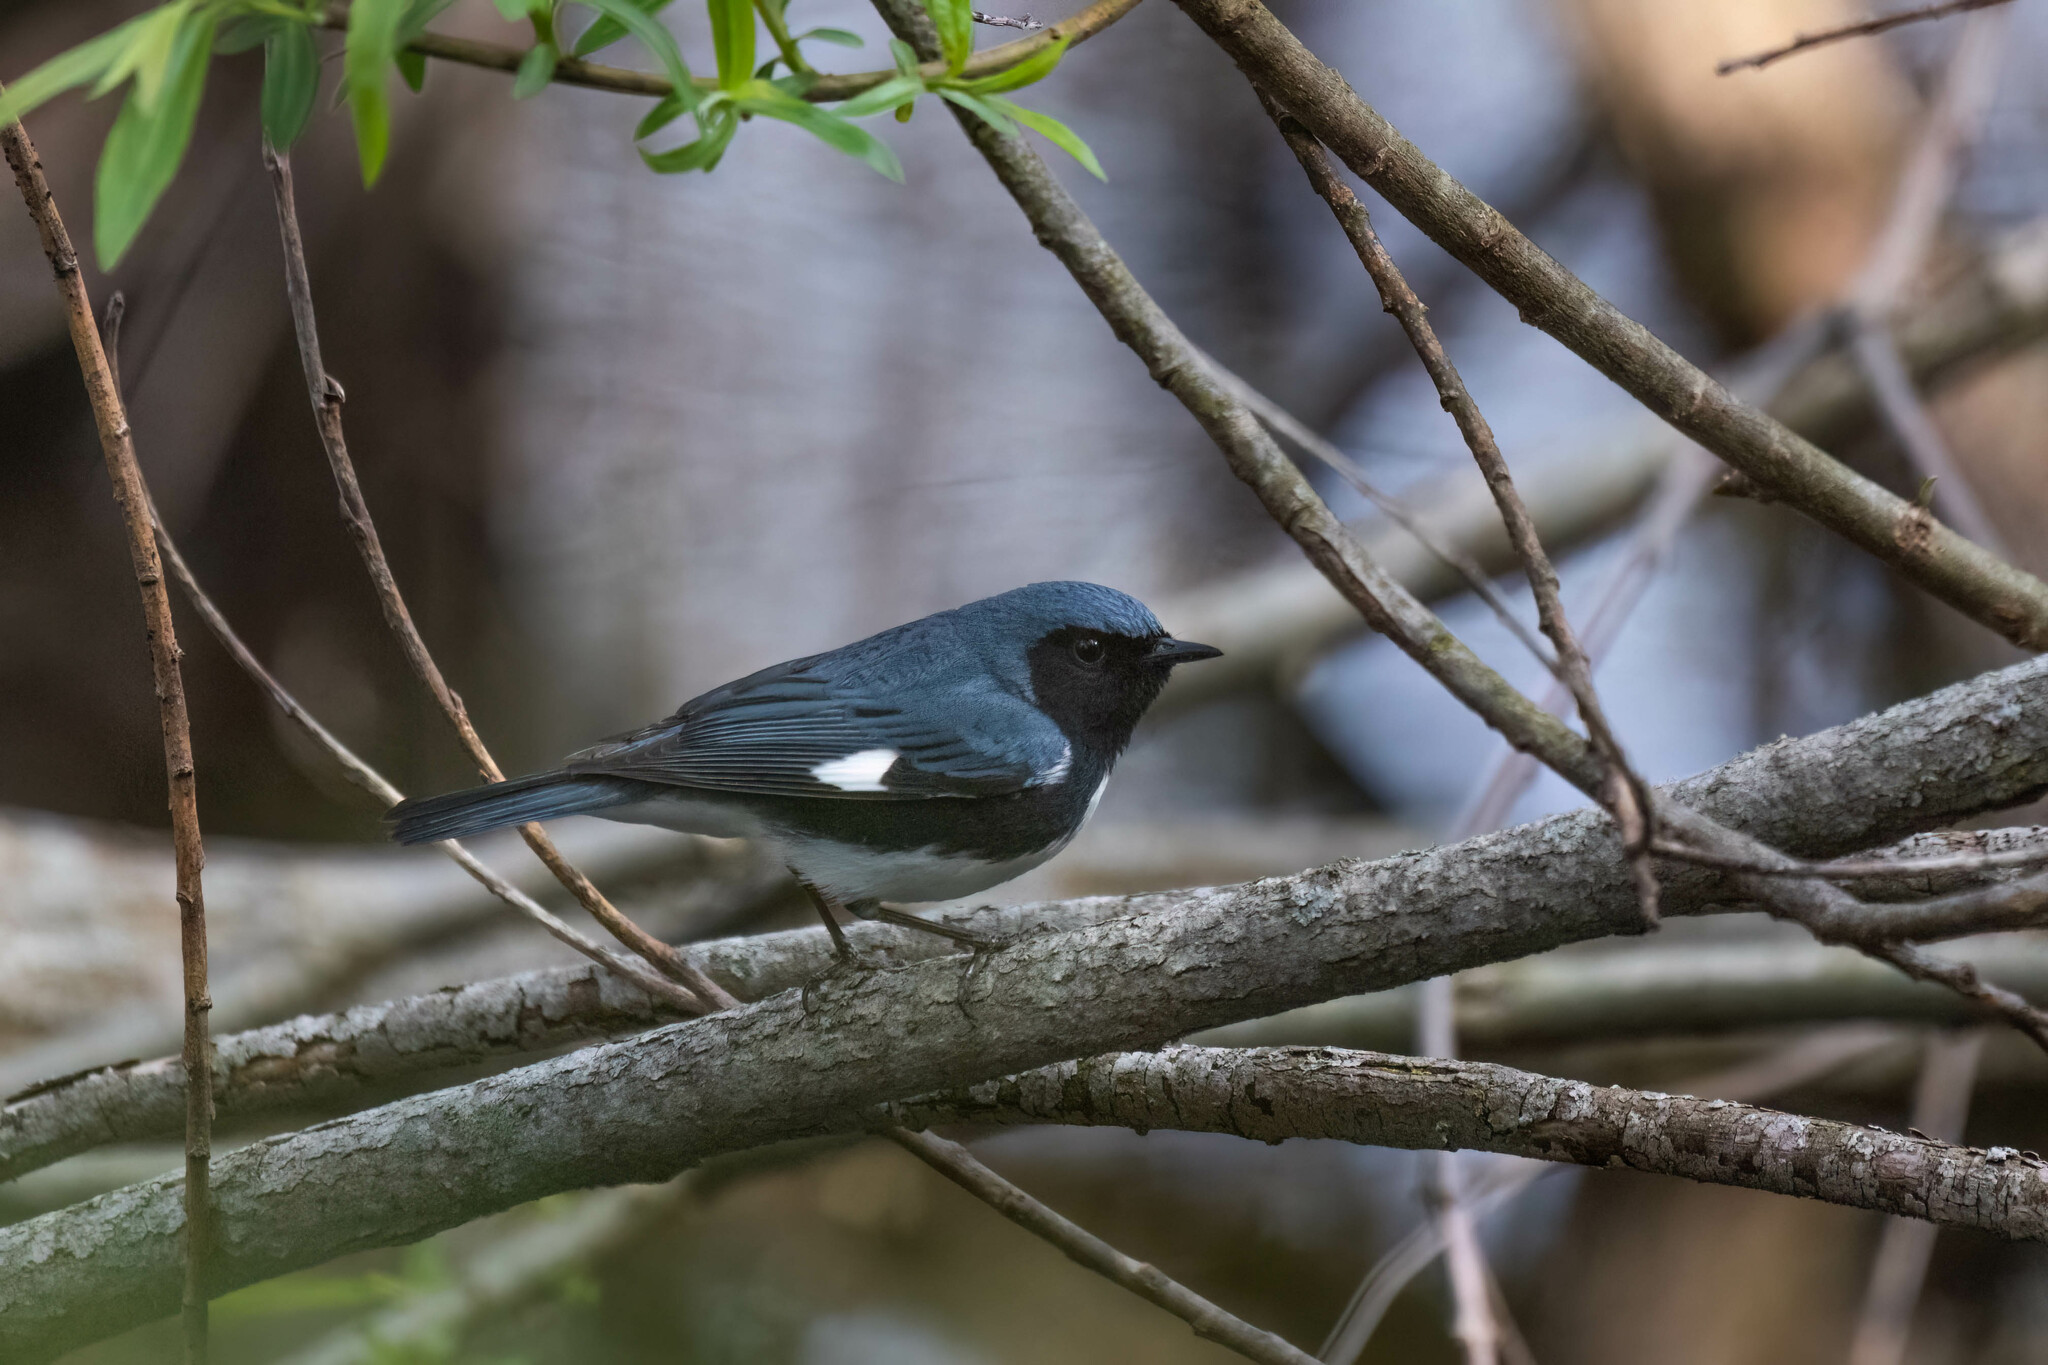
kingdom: Animalia
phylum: Chordata
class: Aves
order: Passeriformes
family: Parulidae
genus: Setophaga
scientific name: Setophaga caerulescens
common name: Black-throated blue warbler
